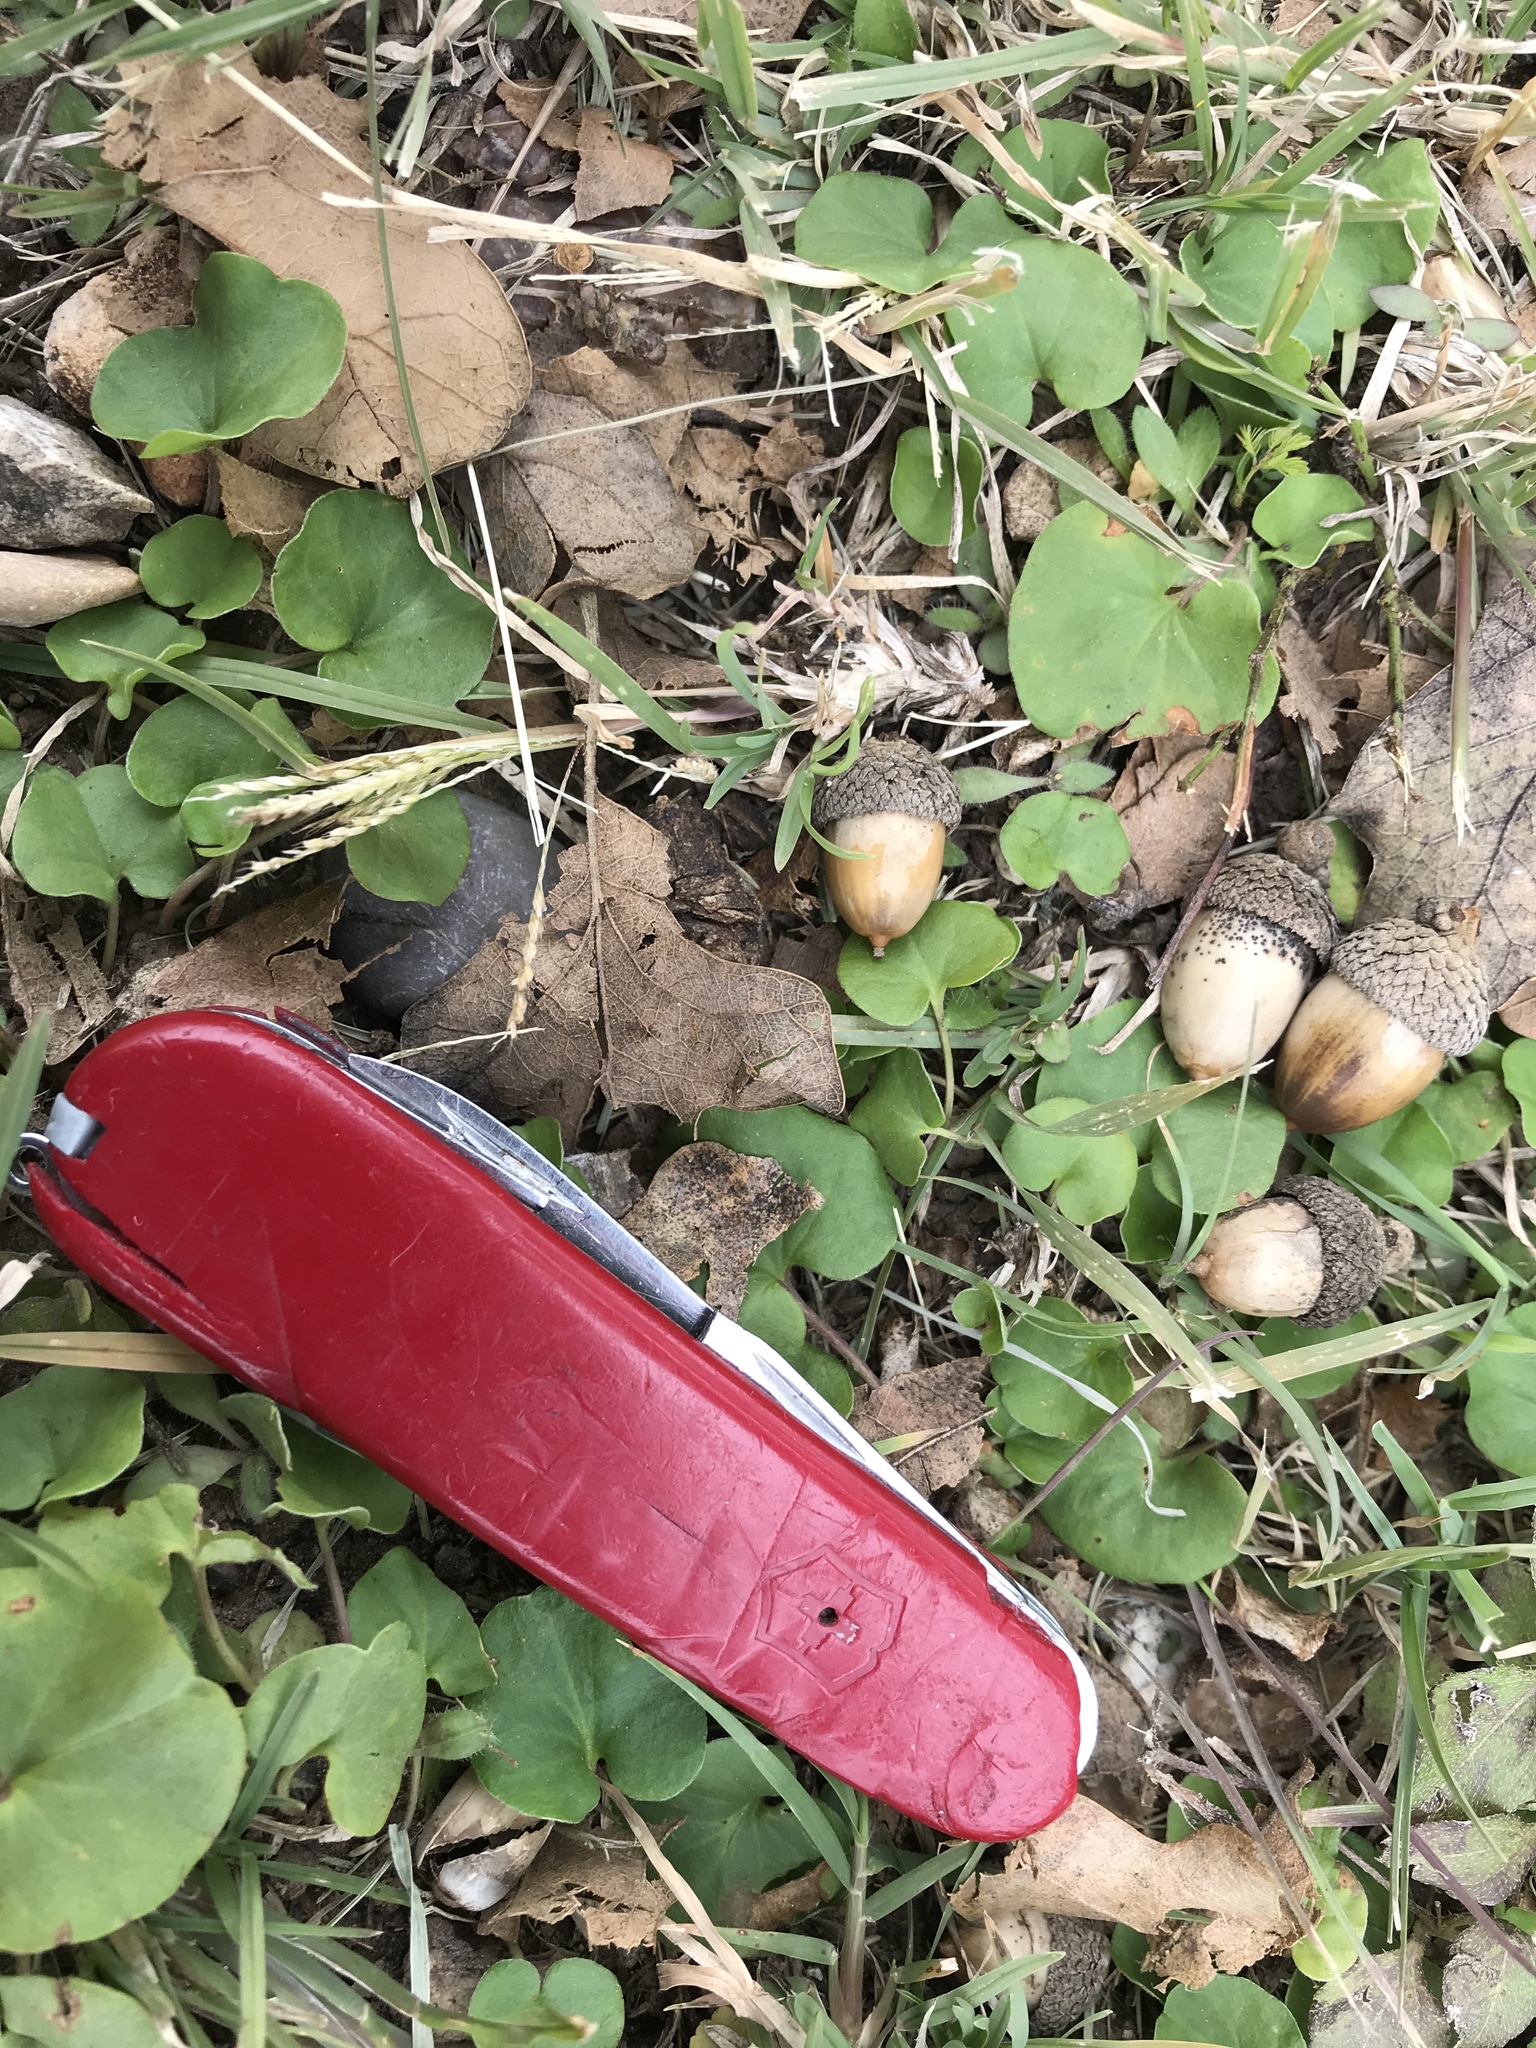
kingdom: Plantae
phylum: Tracheophyta
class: Magnoliopsida
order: Fagales
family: Fagaceae
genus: Quercus
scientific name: Quercus stellata
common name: Post oak
